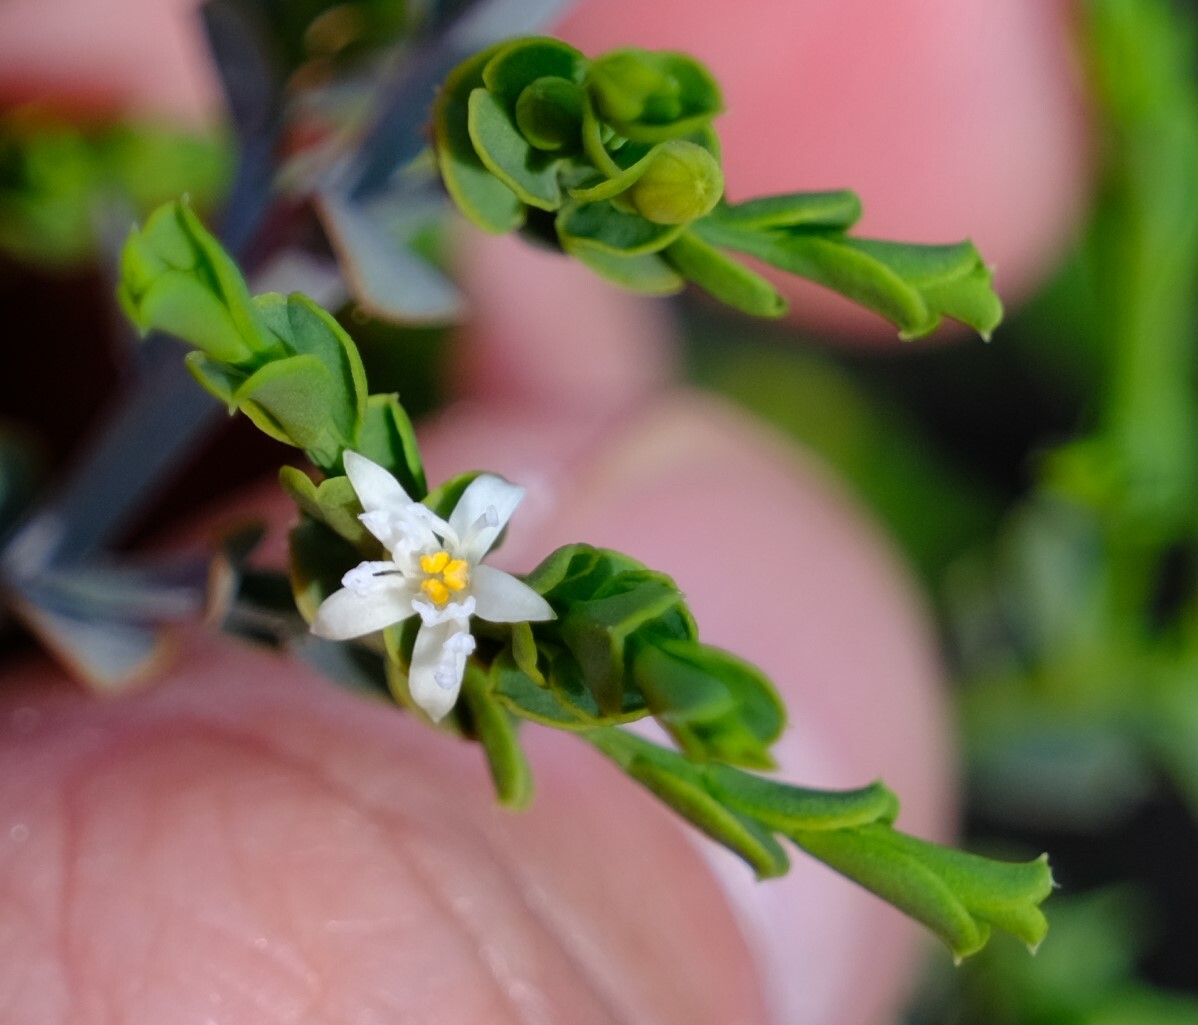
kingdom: Plantae
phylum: Tracheophyta
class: Magnoliopsida
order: Santalales
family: Olacaceae
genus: Olax
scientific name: Olax benthamiana
